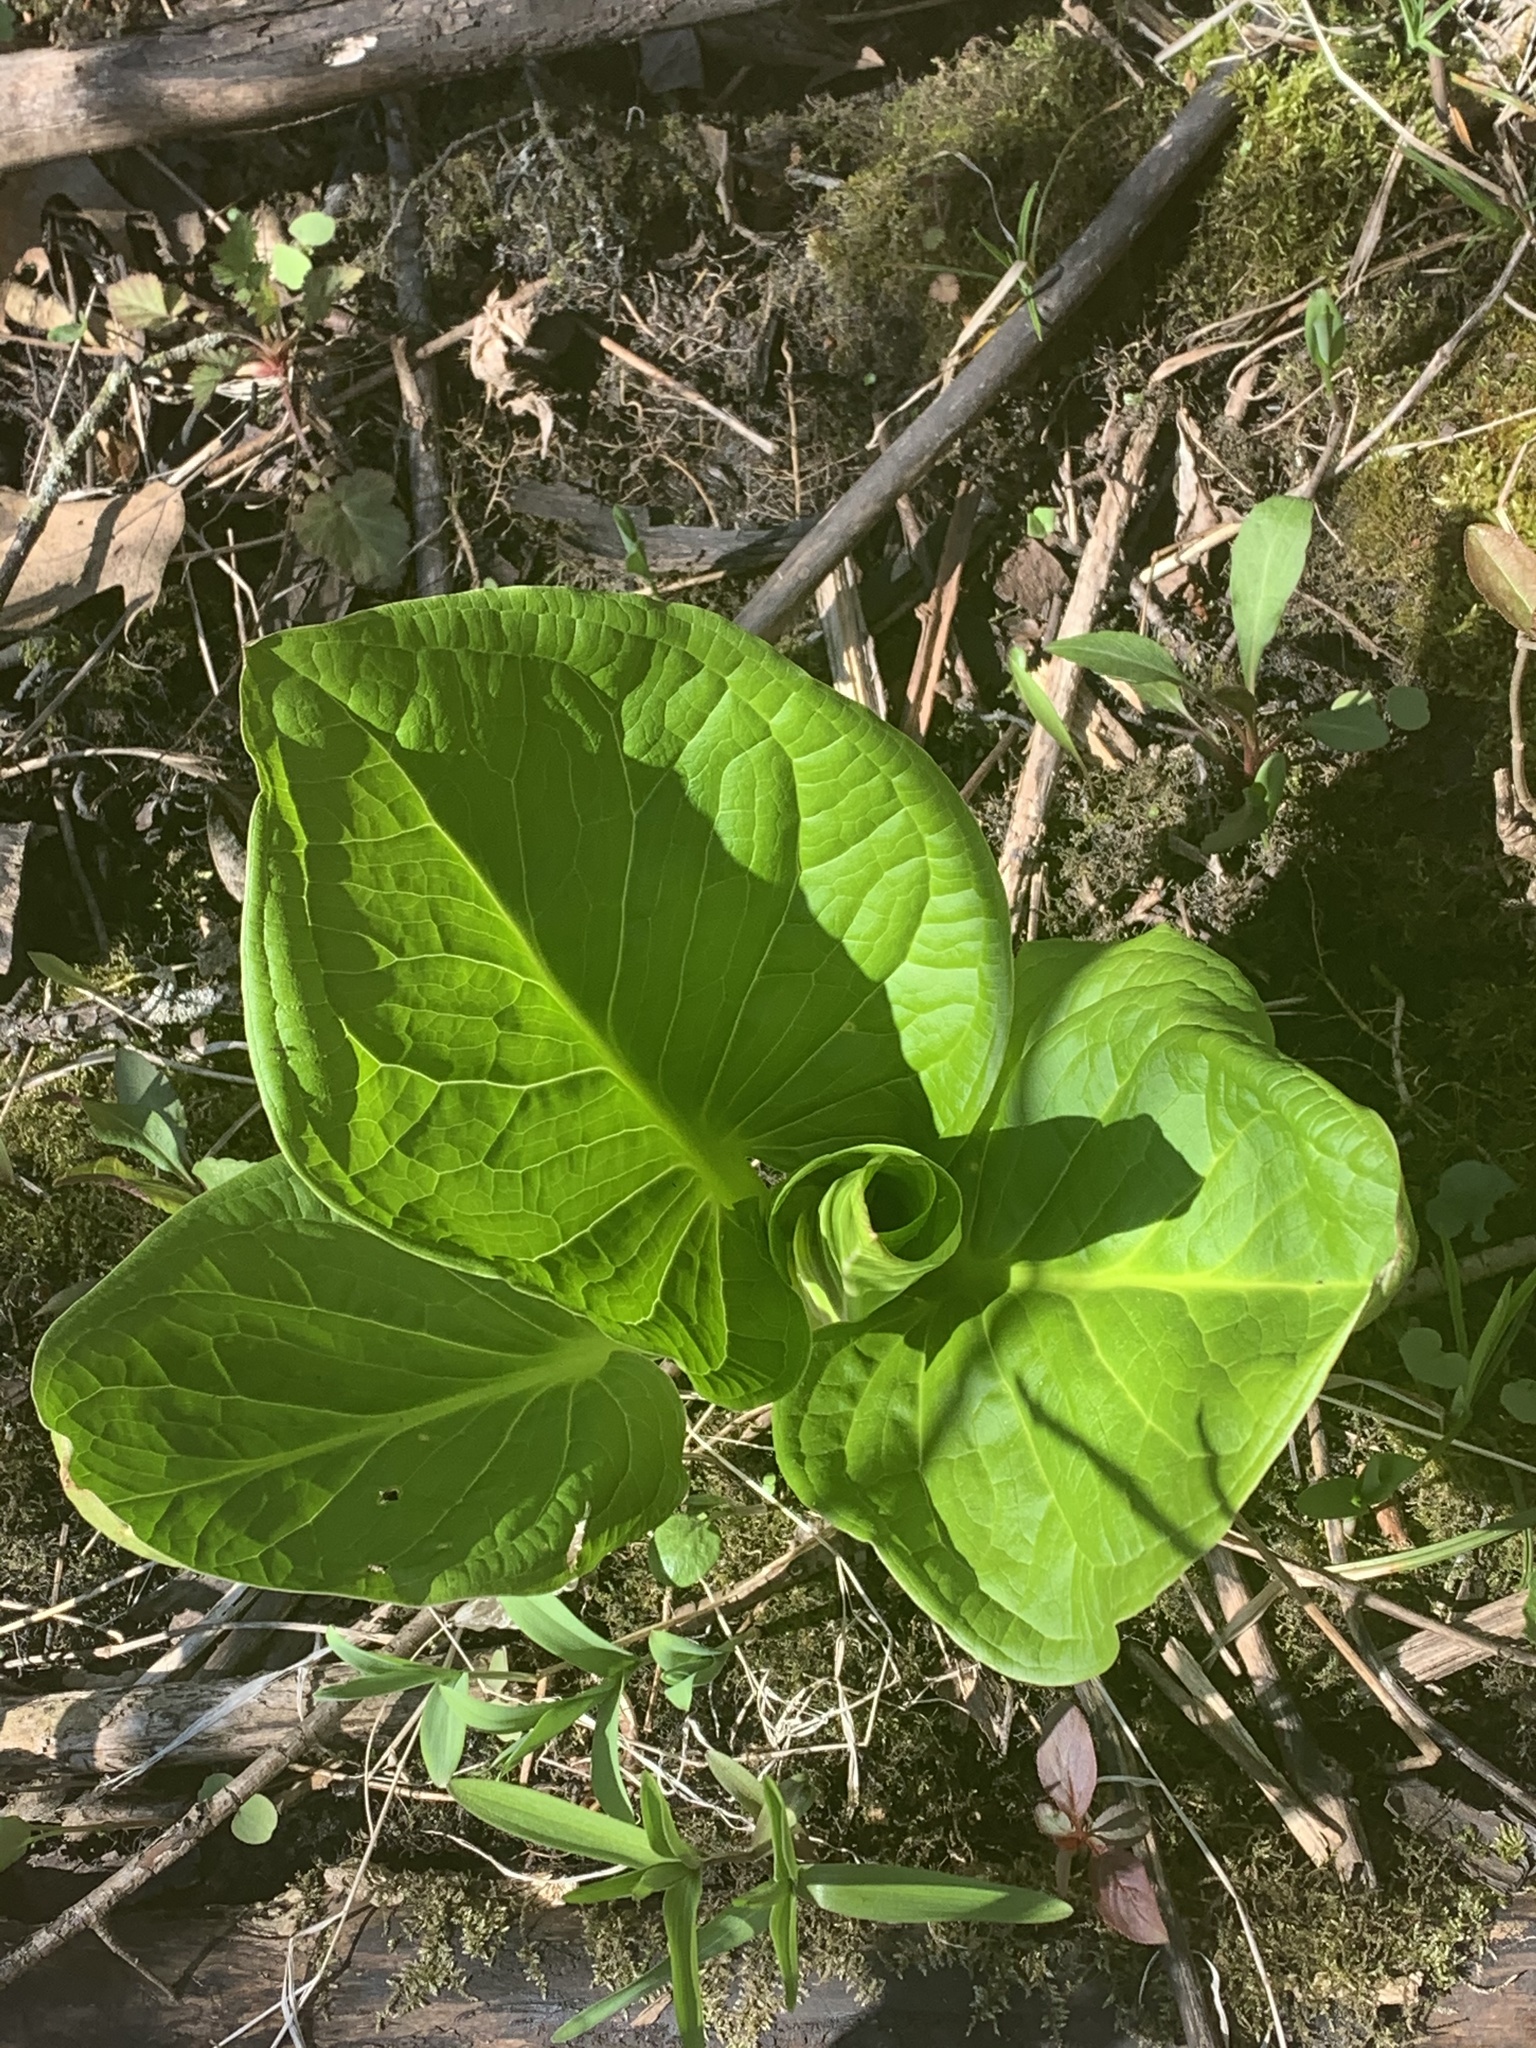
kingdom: Plantae
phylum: Tracheophyta
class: Liliopsida
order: Alismatales
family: Araceae
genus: Symplocarpus
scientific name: Symplocarpus foetidus
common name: Eastern skunk cabbage
